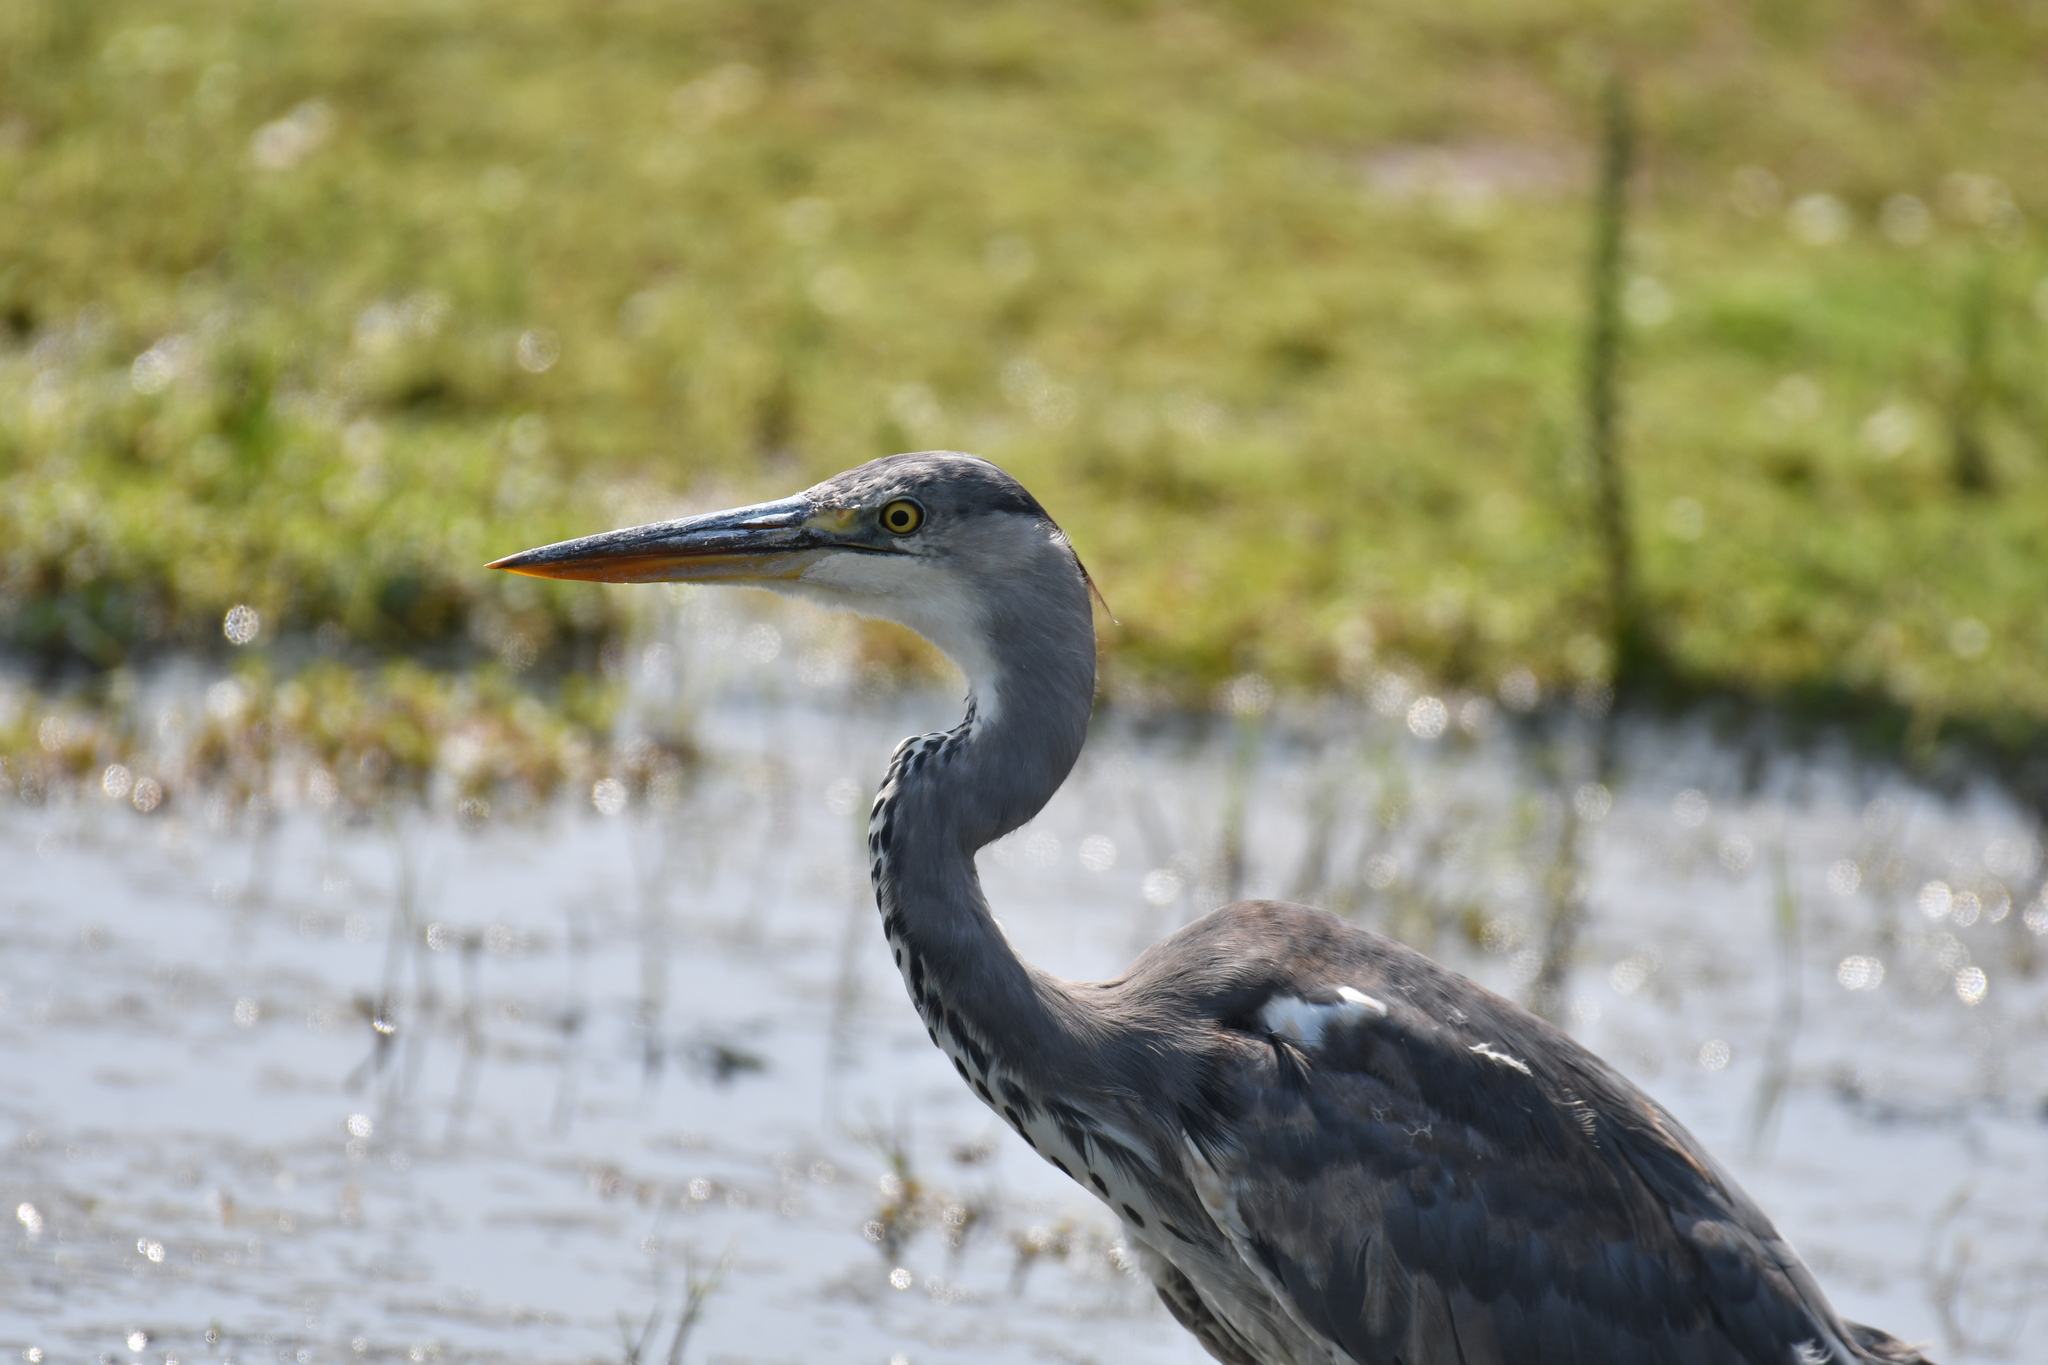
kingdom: Animalia
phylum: Chordata
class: Aves
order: Pelecaniformes
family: Ardeidae
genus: Ardea
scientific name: Ardea cinerea
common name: Grey heron
